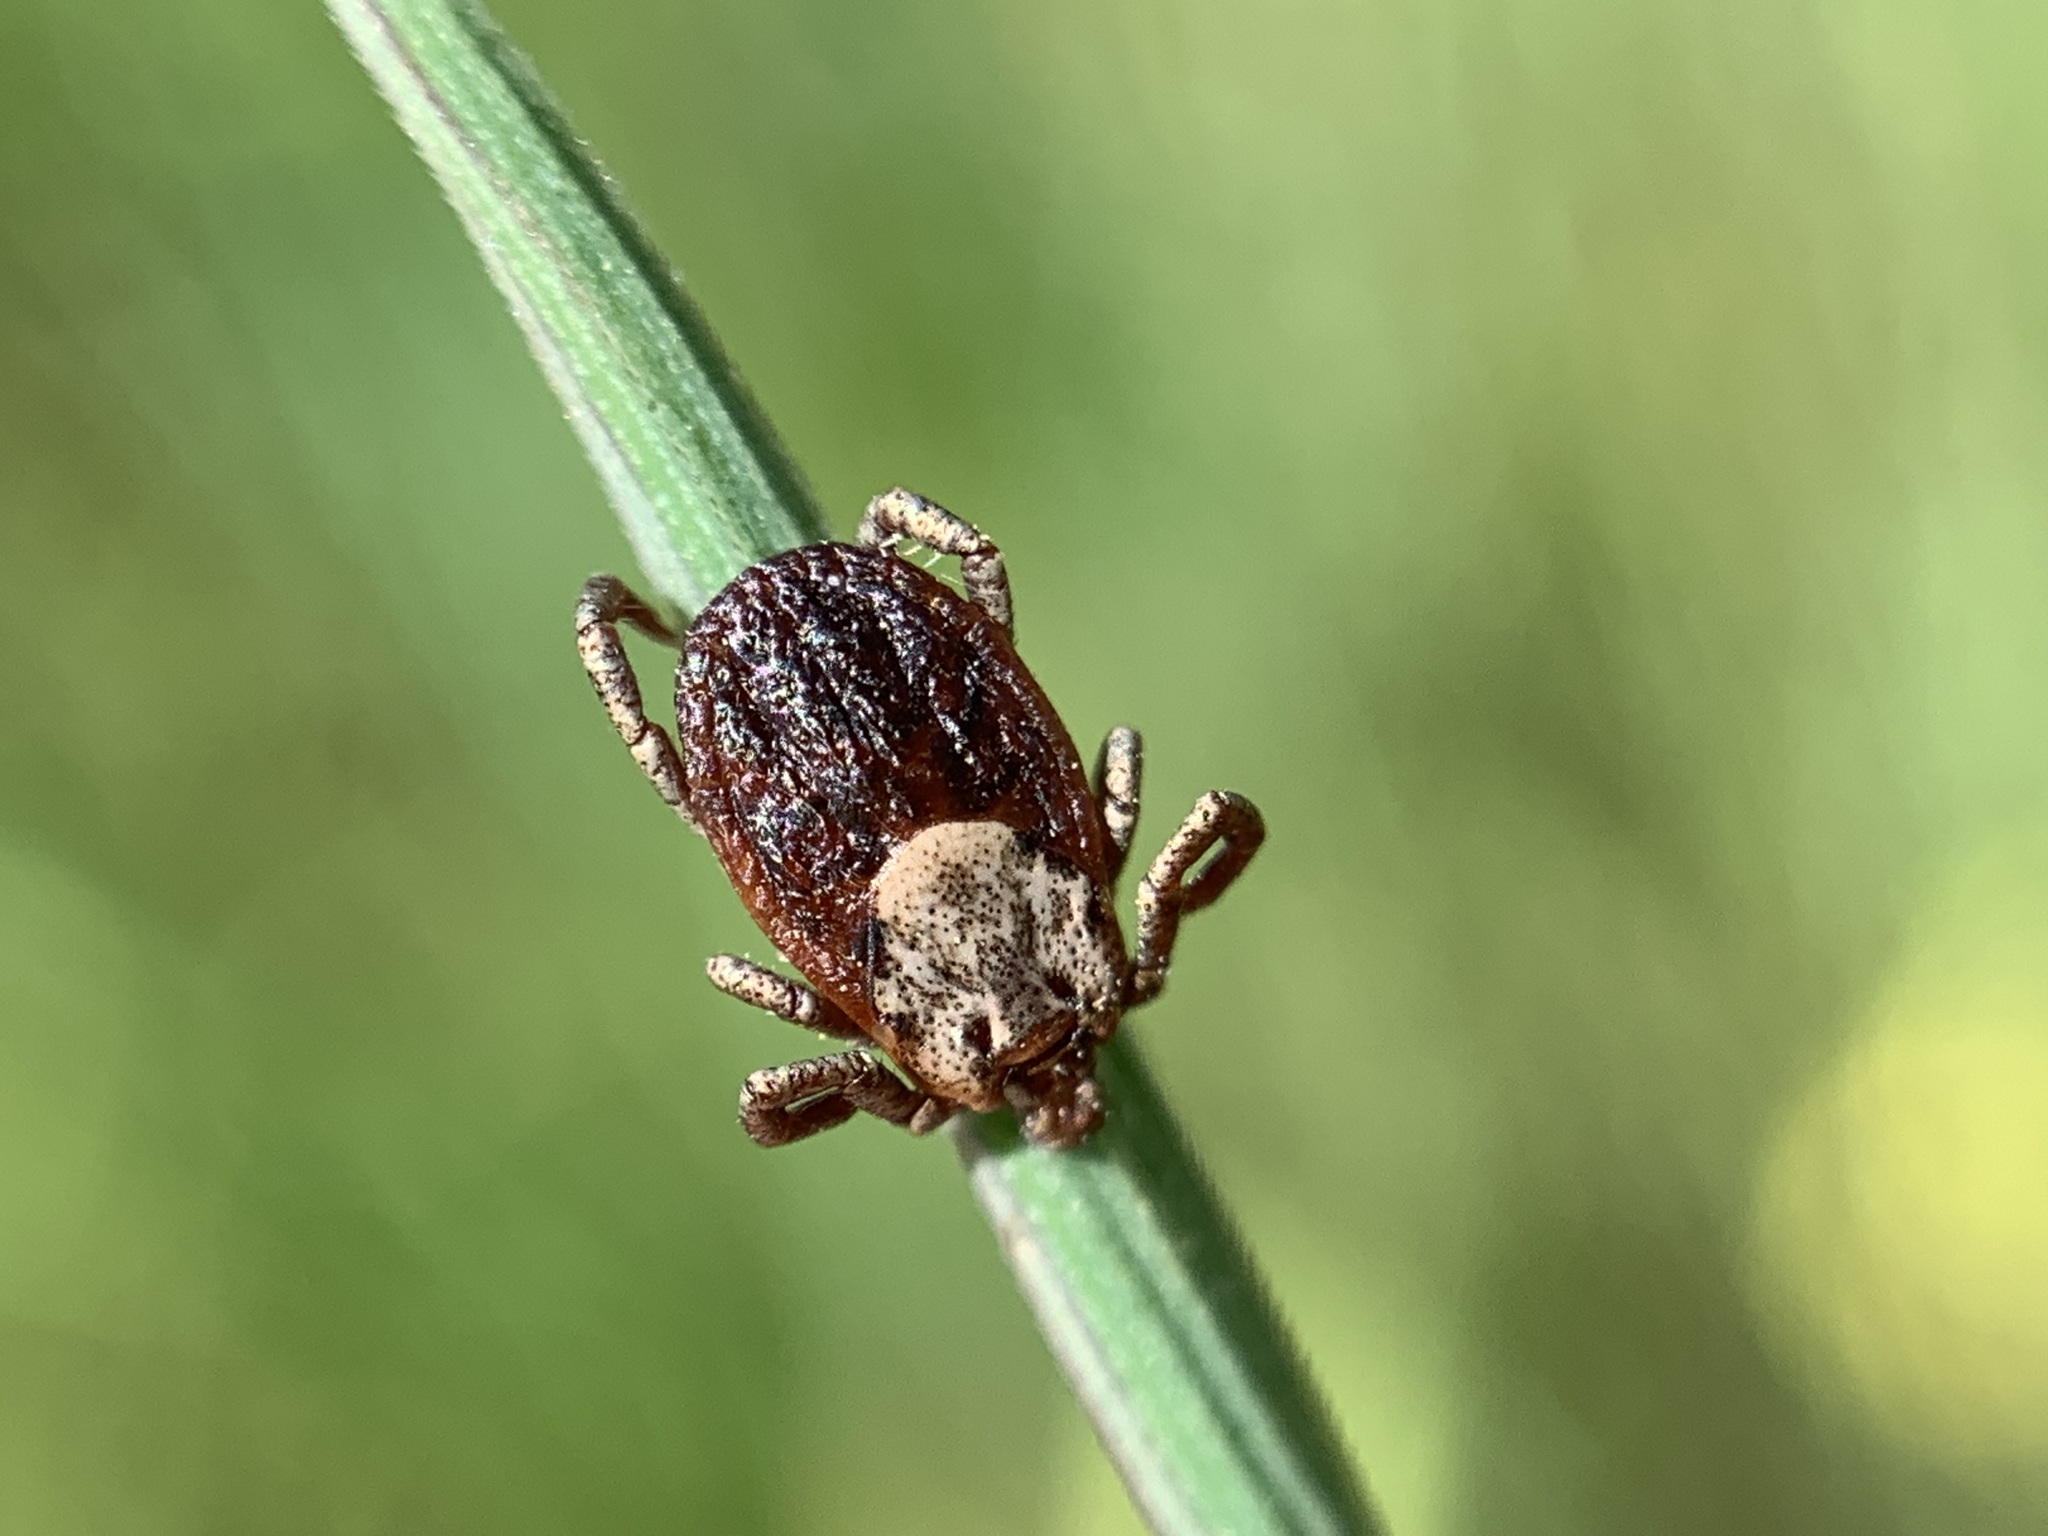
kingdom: Animalia
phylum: Arthropoda
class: Arachnida
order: Ixodida
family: Ixodidae
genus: Dermacentor
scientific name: Dermacentor occidentalis
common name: Net tick
